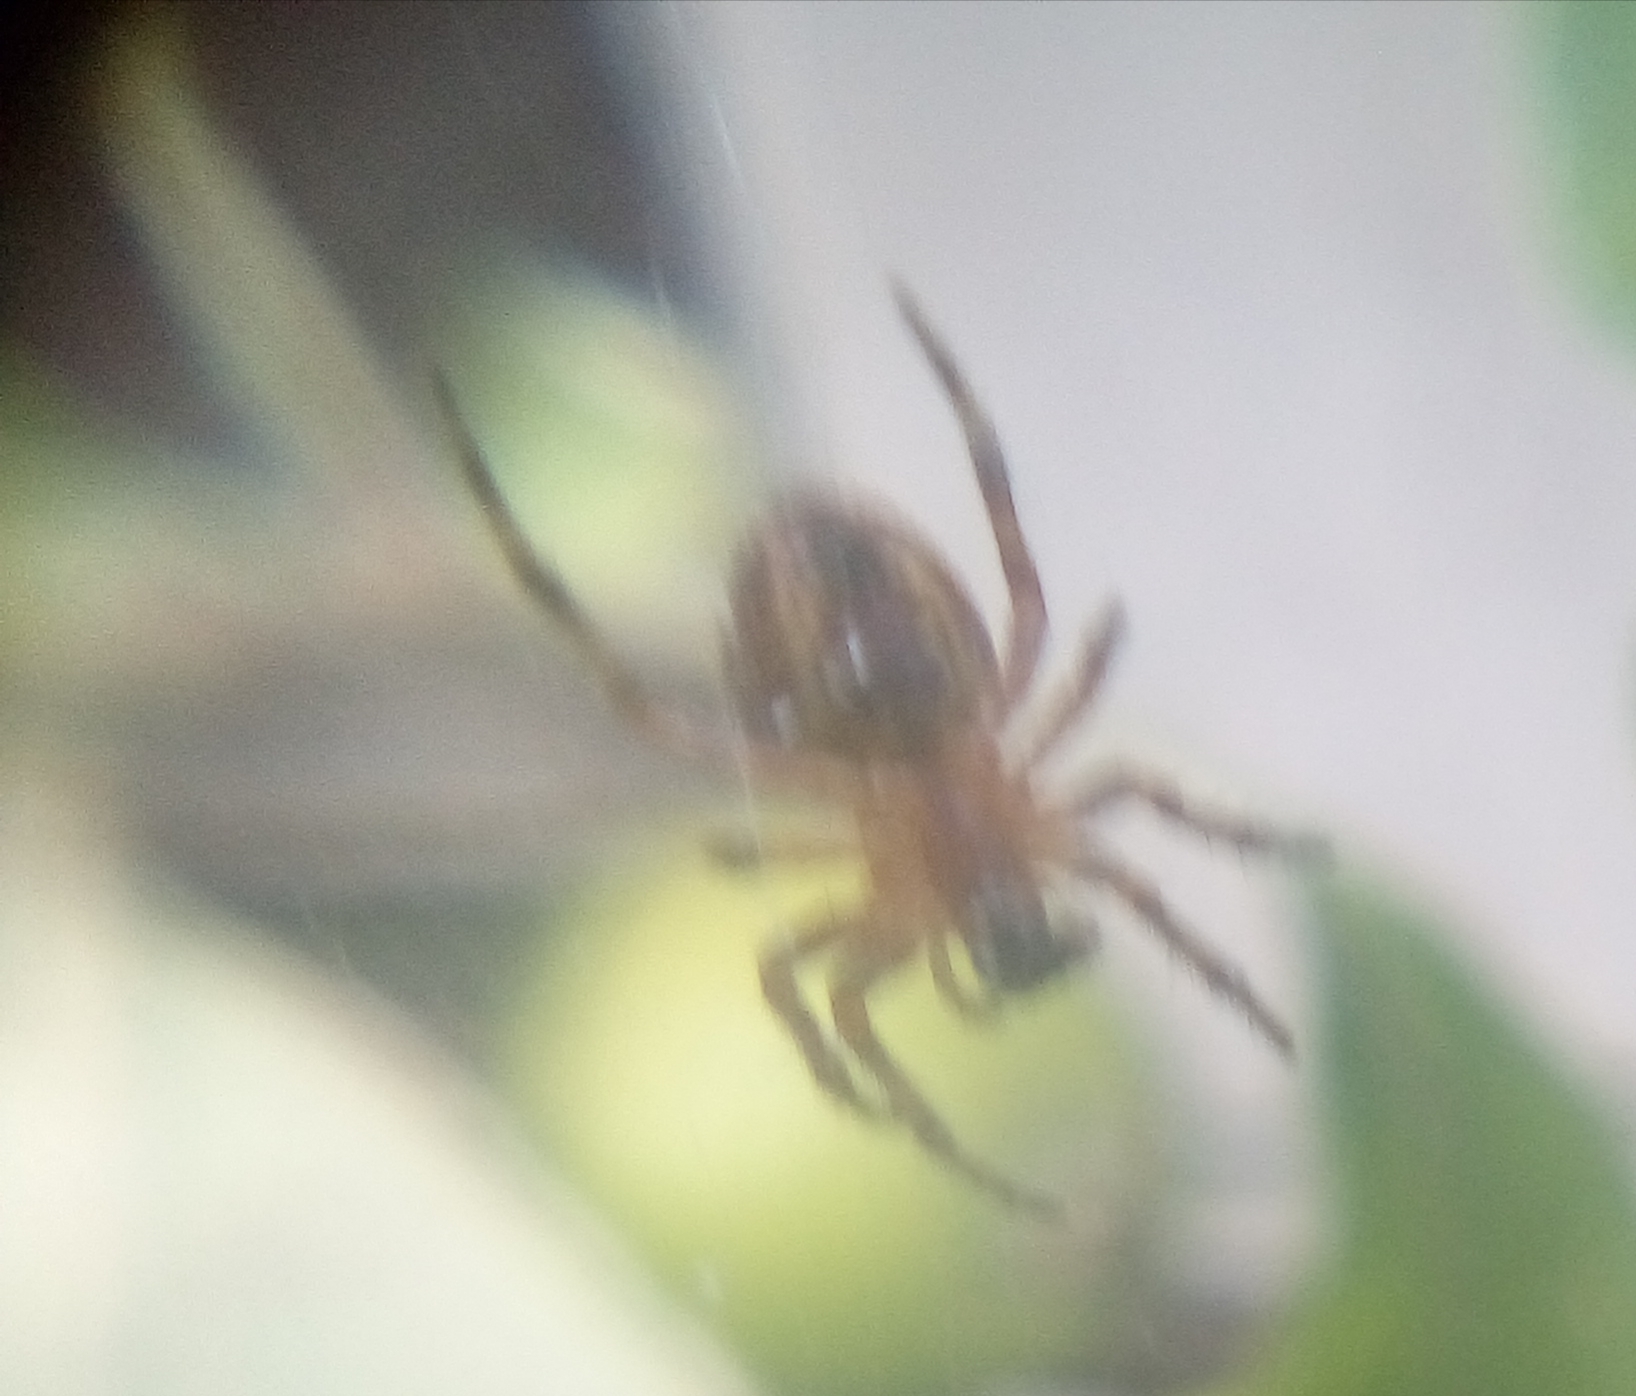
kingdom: Animalia
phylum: Arthropoda
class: Arachnida
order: Araneae
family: Araneidae
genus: Araneus
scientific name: Araneus diadematus
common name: Cross orbweaver
